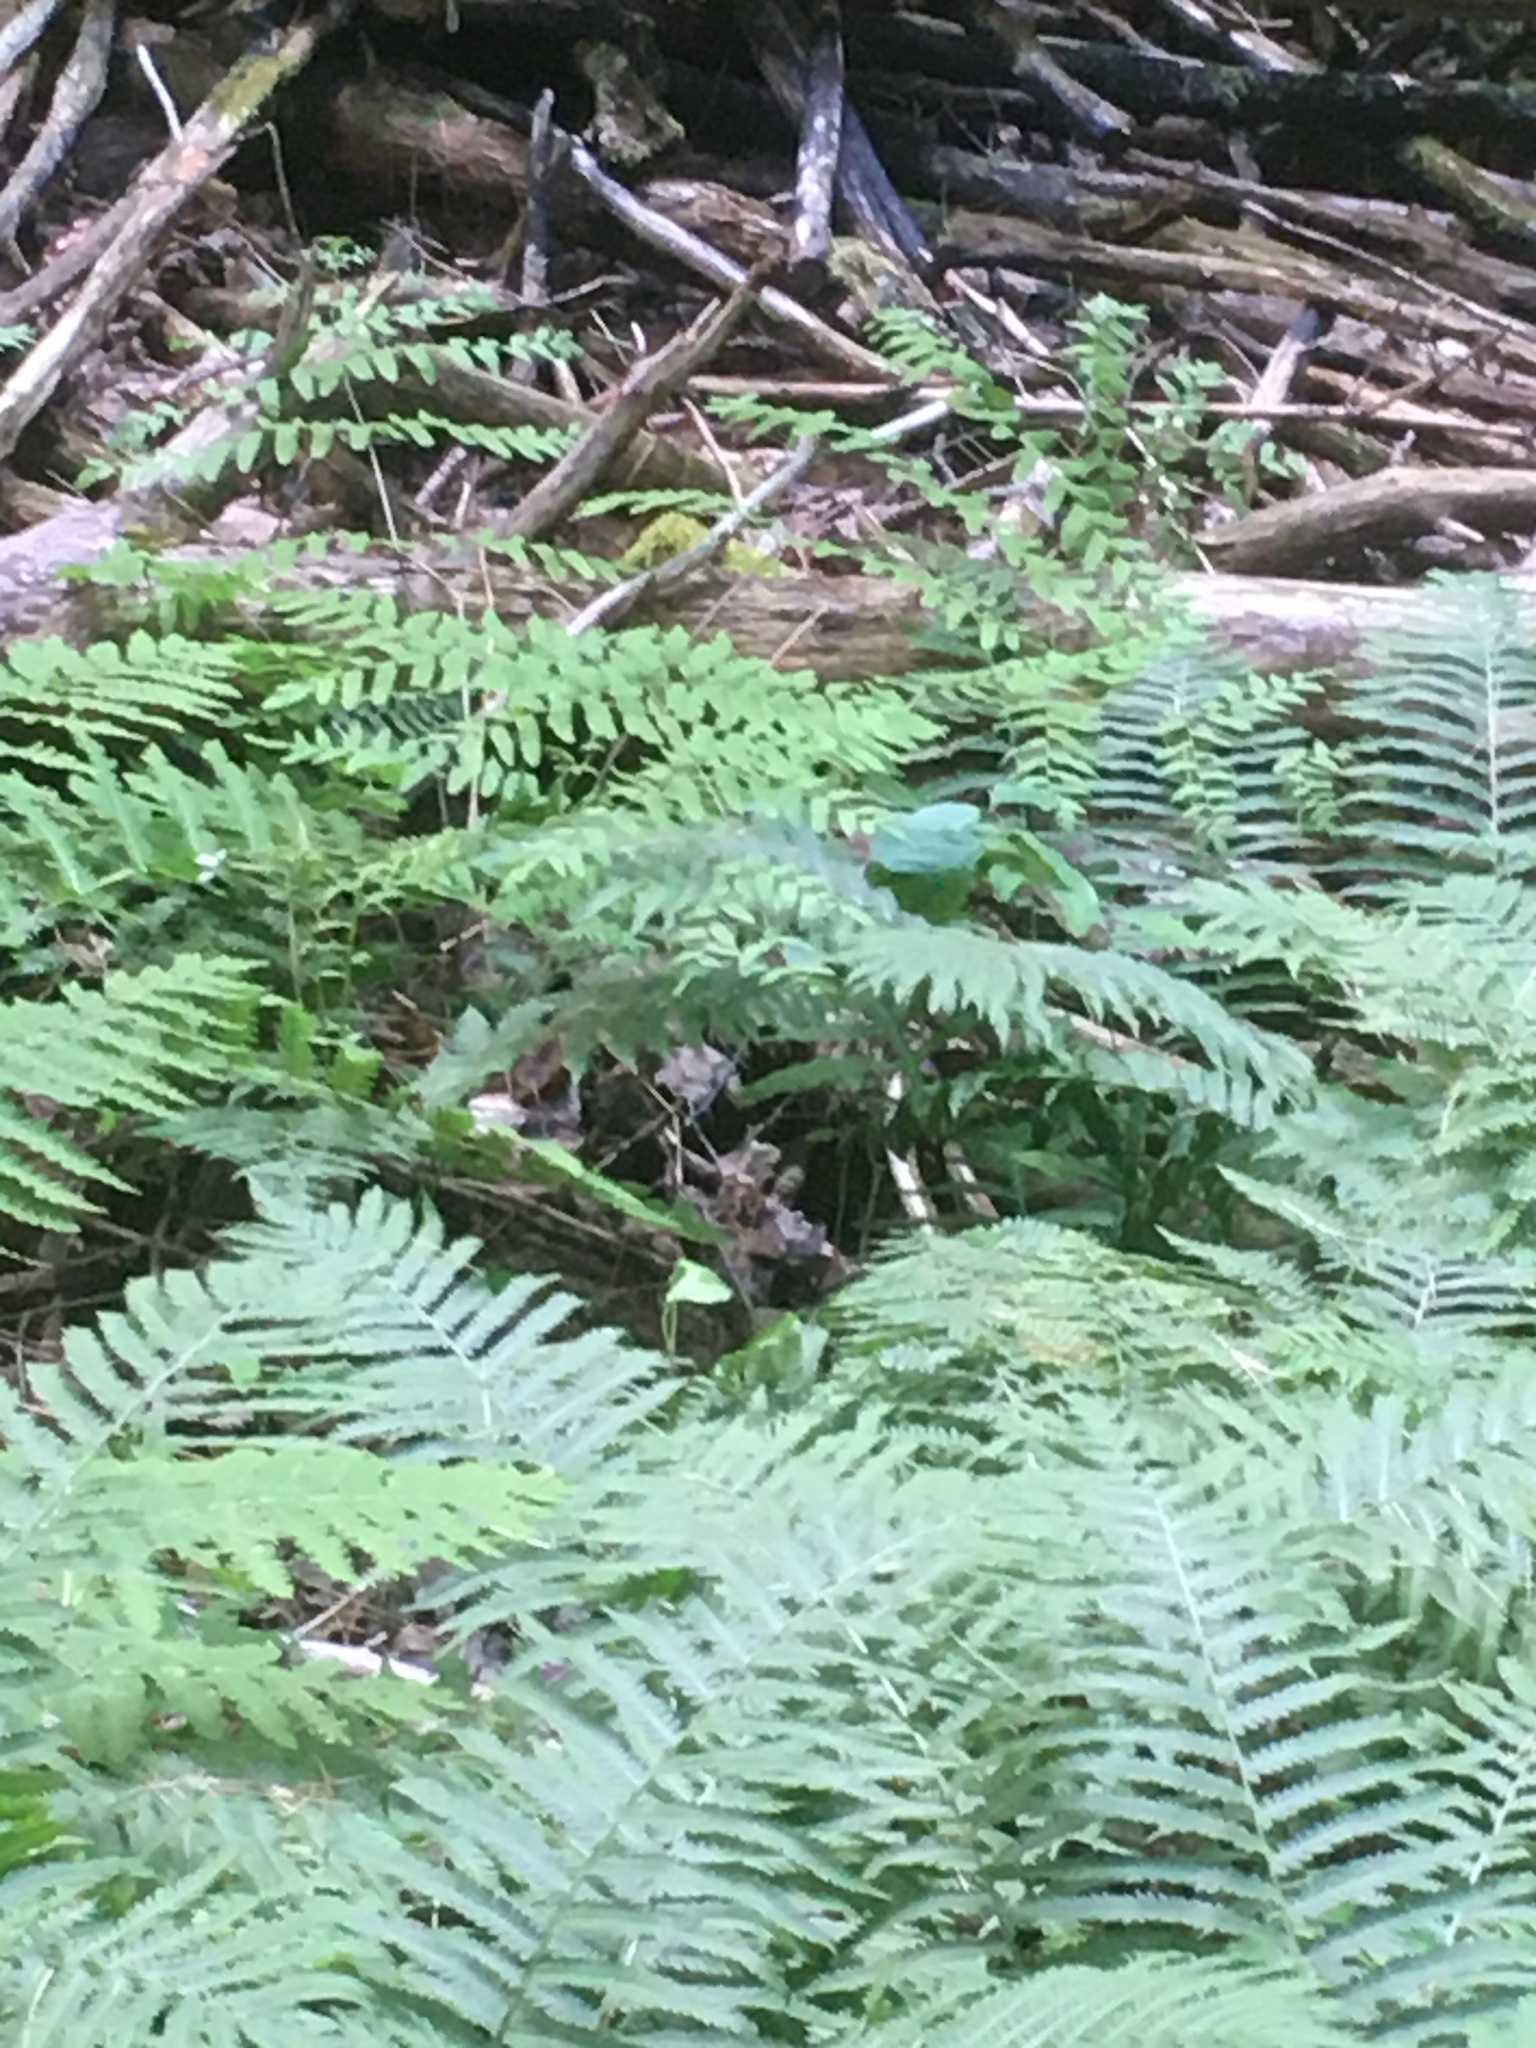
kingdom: Plantae
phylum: Tracheophyta
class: Polypodiopsida
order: Osmundales
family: Osmundaceae
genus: Osmunda
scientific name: Osmunda spectabilis
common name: American royal fern
